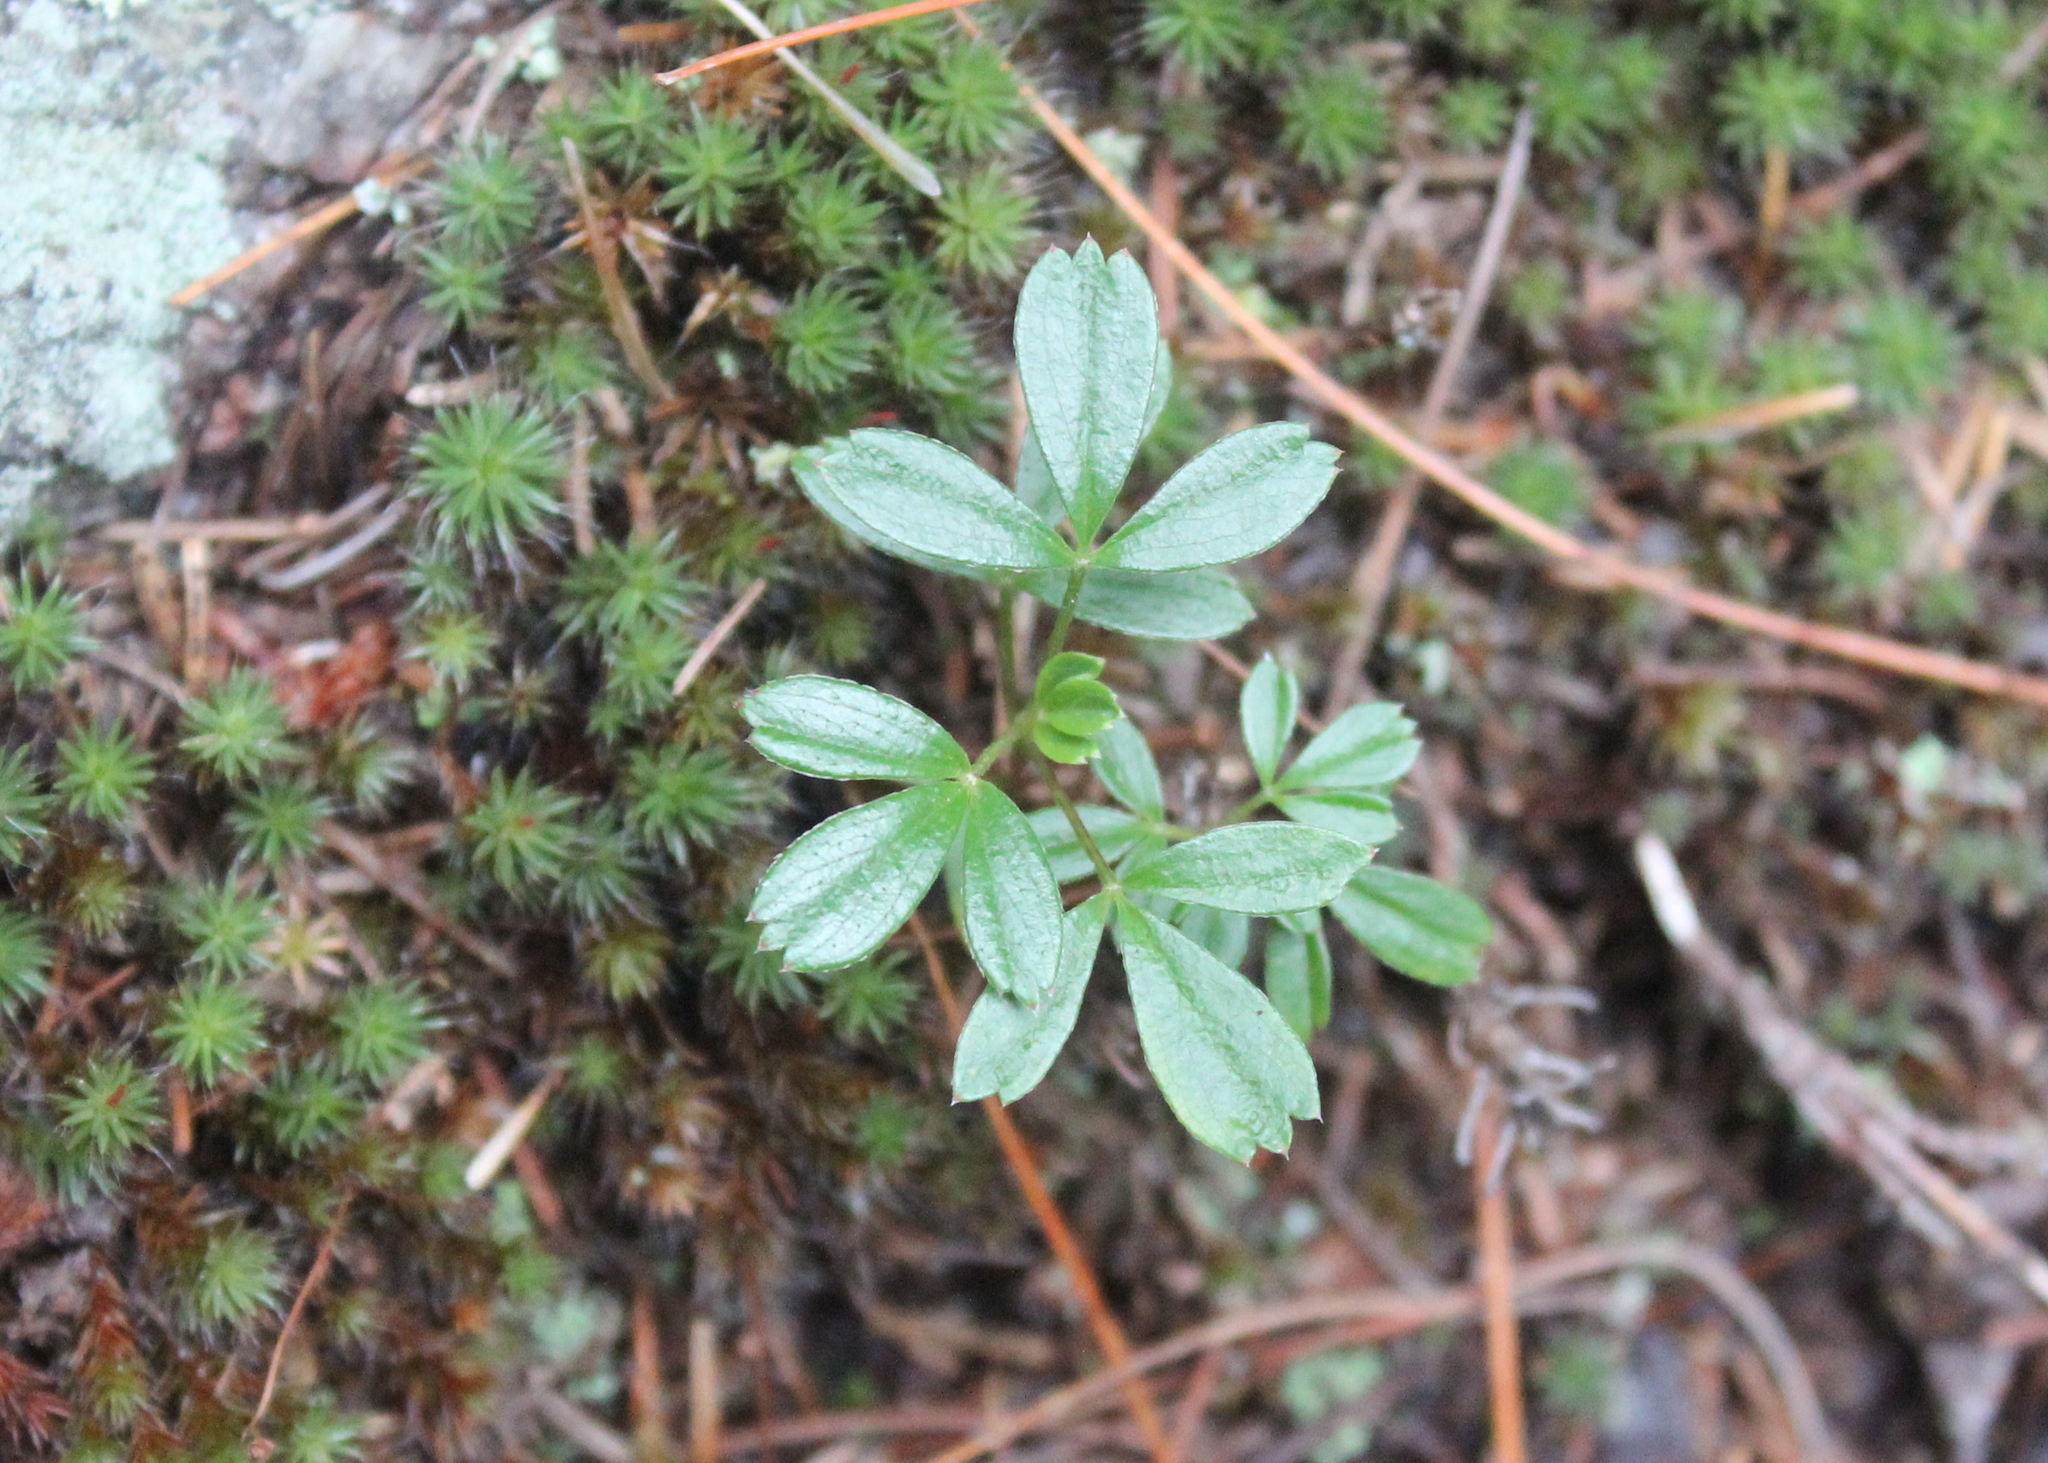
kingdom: Plantae
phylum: Tracheophyta
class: Magnoliopsida
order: Rosales
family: Rosaceae
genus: Sibbaldia
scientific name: Sibbaldia tridentata
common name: Three-toothed cinquefoil
